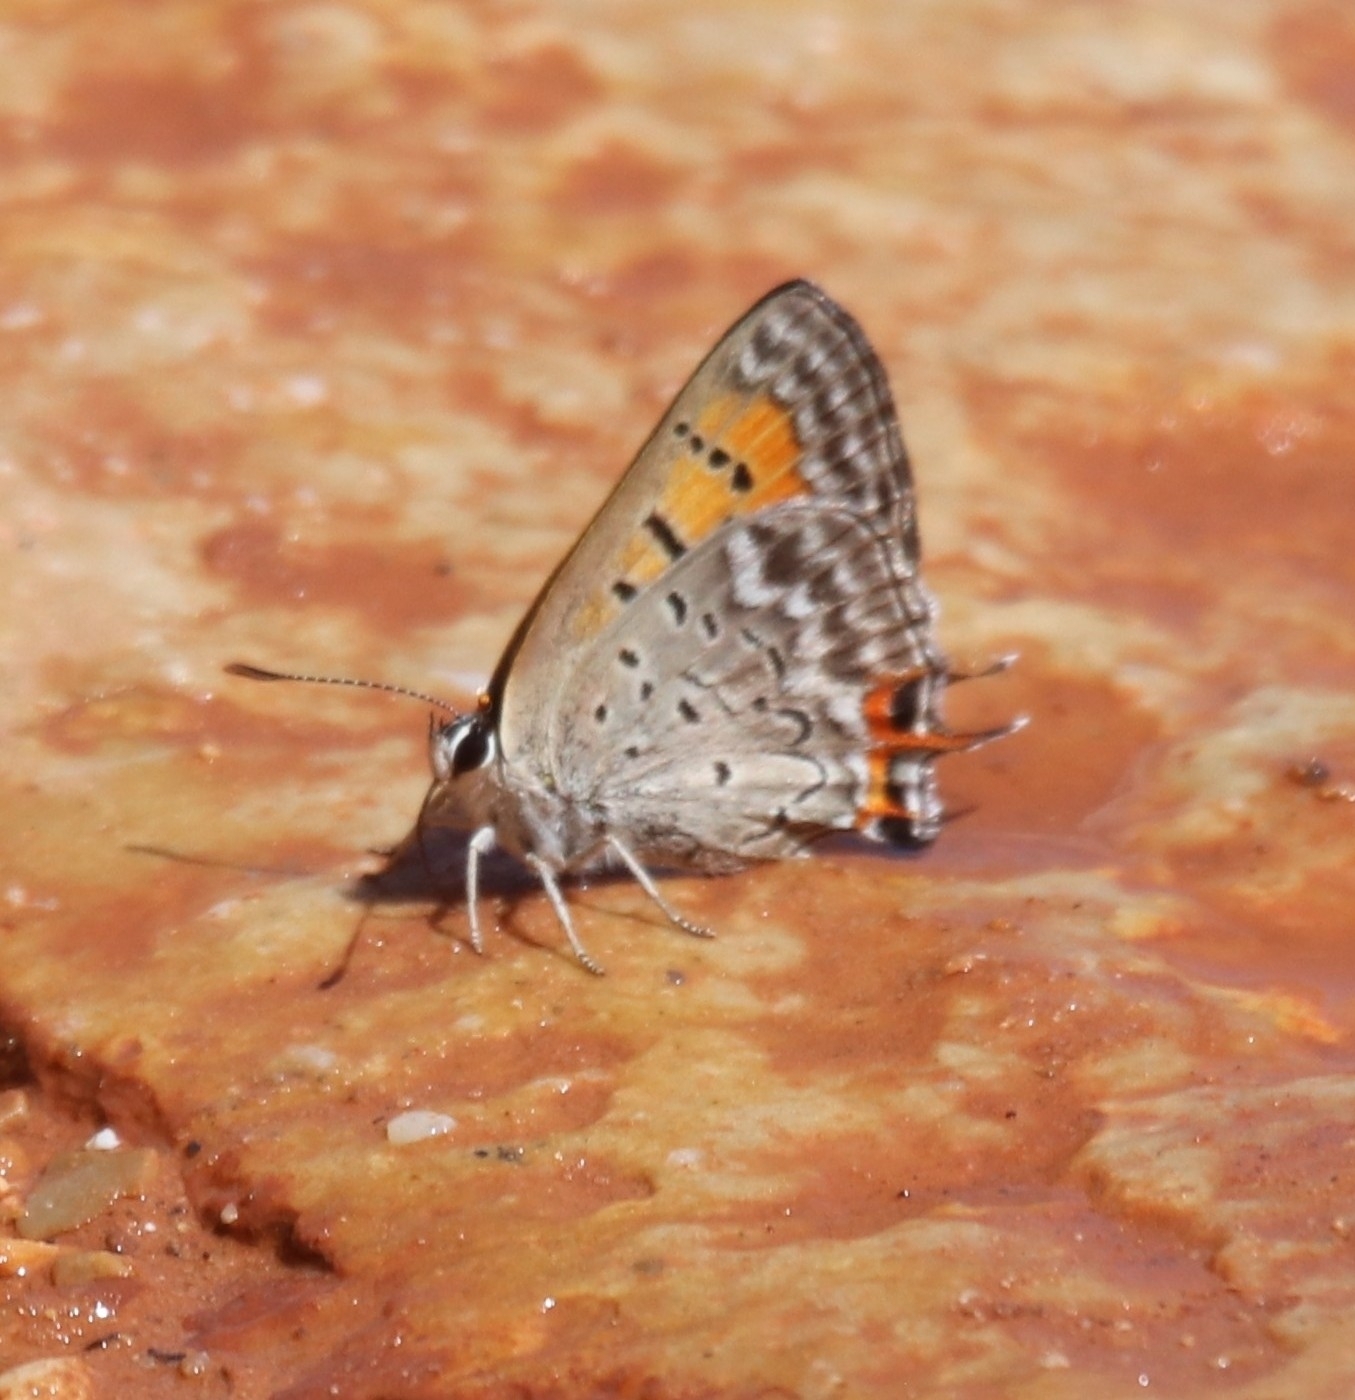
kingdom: Animalia
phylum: Arthropoda
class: Insecta
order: Lepidoptera
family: Lycaenidae
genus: Tharsalea
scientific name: Tharsalea arota
